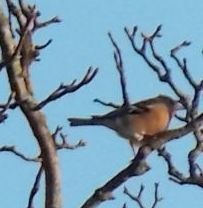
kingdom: Animalia
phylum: Chordata
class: Aves
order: Passeriformes
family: Fringillidae
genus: Fringilla
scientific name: Fringilla coelebs
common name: Common chaffinch
